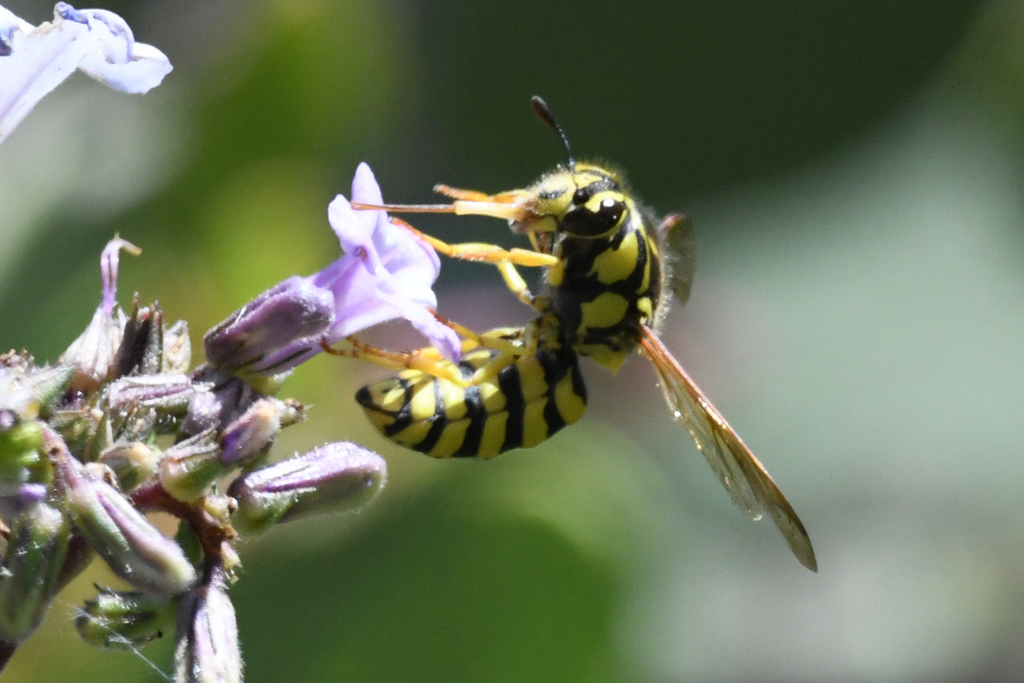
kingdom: Animalia
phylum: Arthropoda
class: Insecta
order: Hymenoptera
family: Masaridae
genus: Pseudomasaris
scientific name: Pseudomasaris wheeleri
